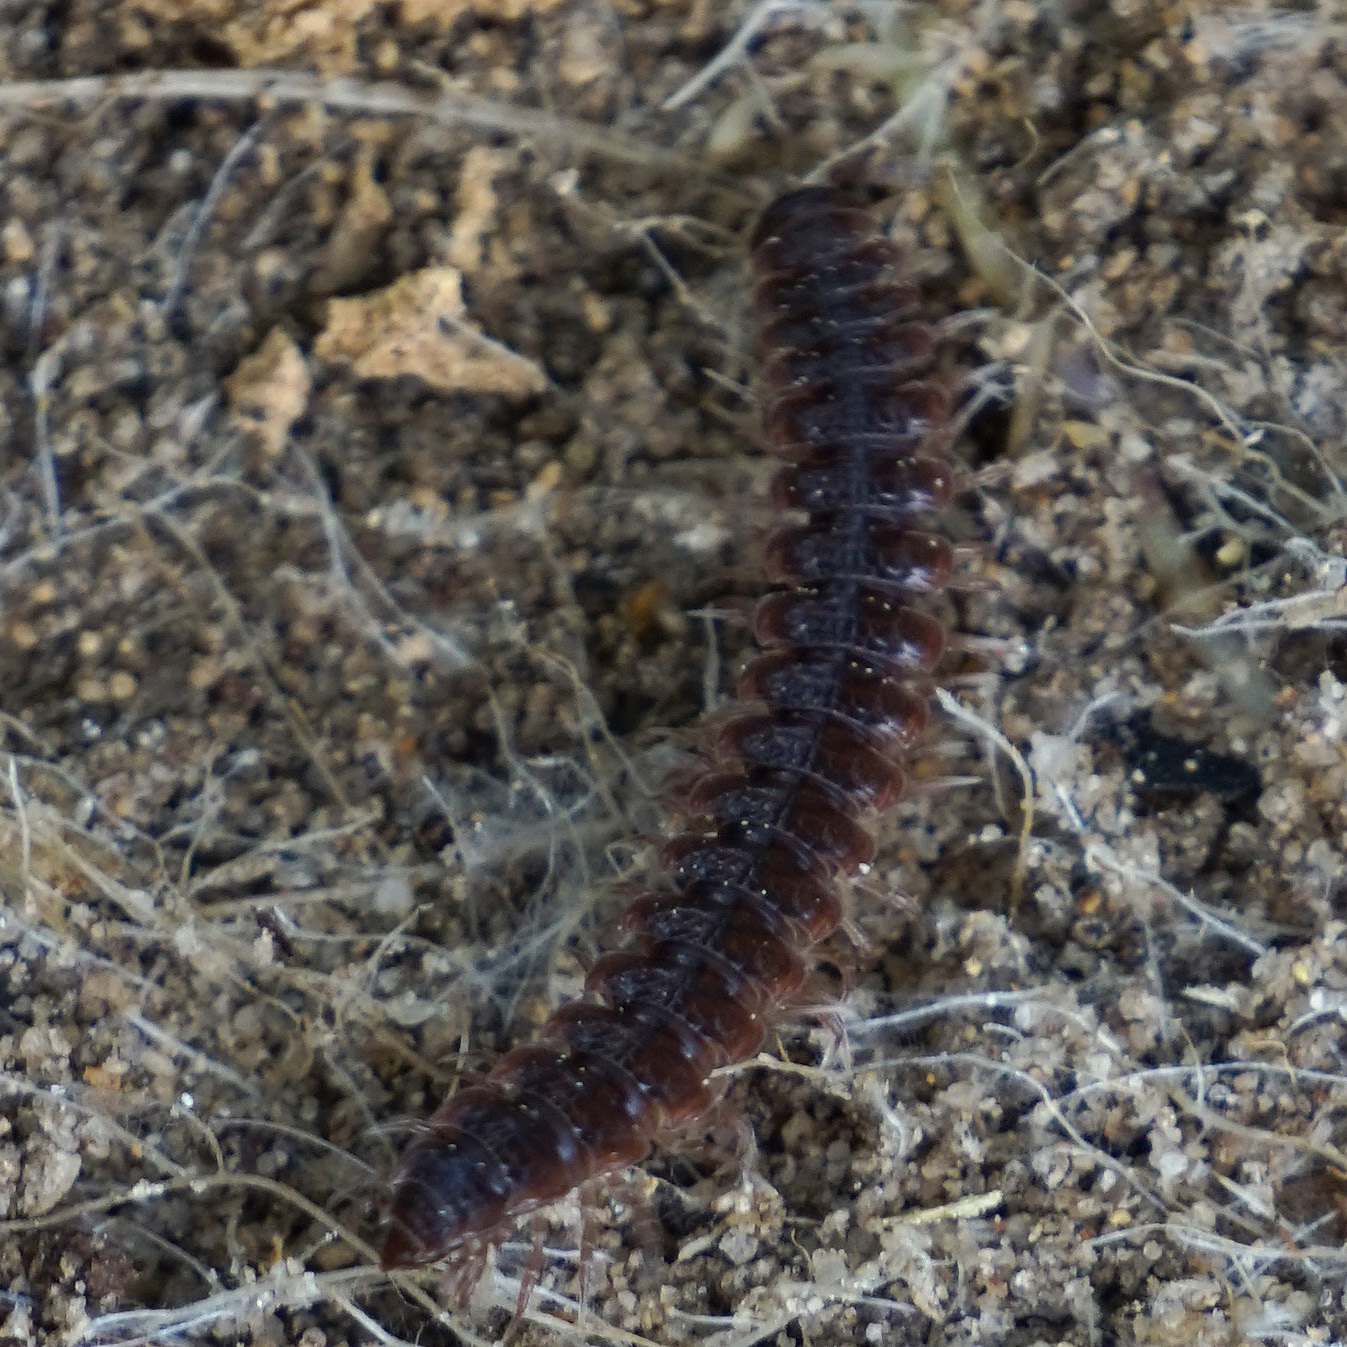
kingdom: Animalia
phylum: Arthropoda
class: Diplopoda
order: Polydesmida
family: Polydesmidae
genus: Pseudopolydesmus
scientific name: Pseudopolydesmus serratus
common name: Common pink flat-back millipede
